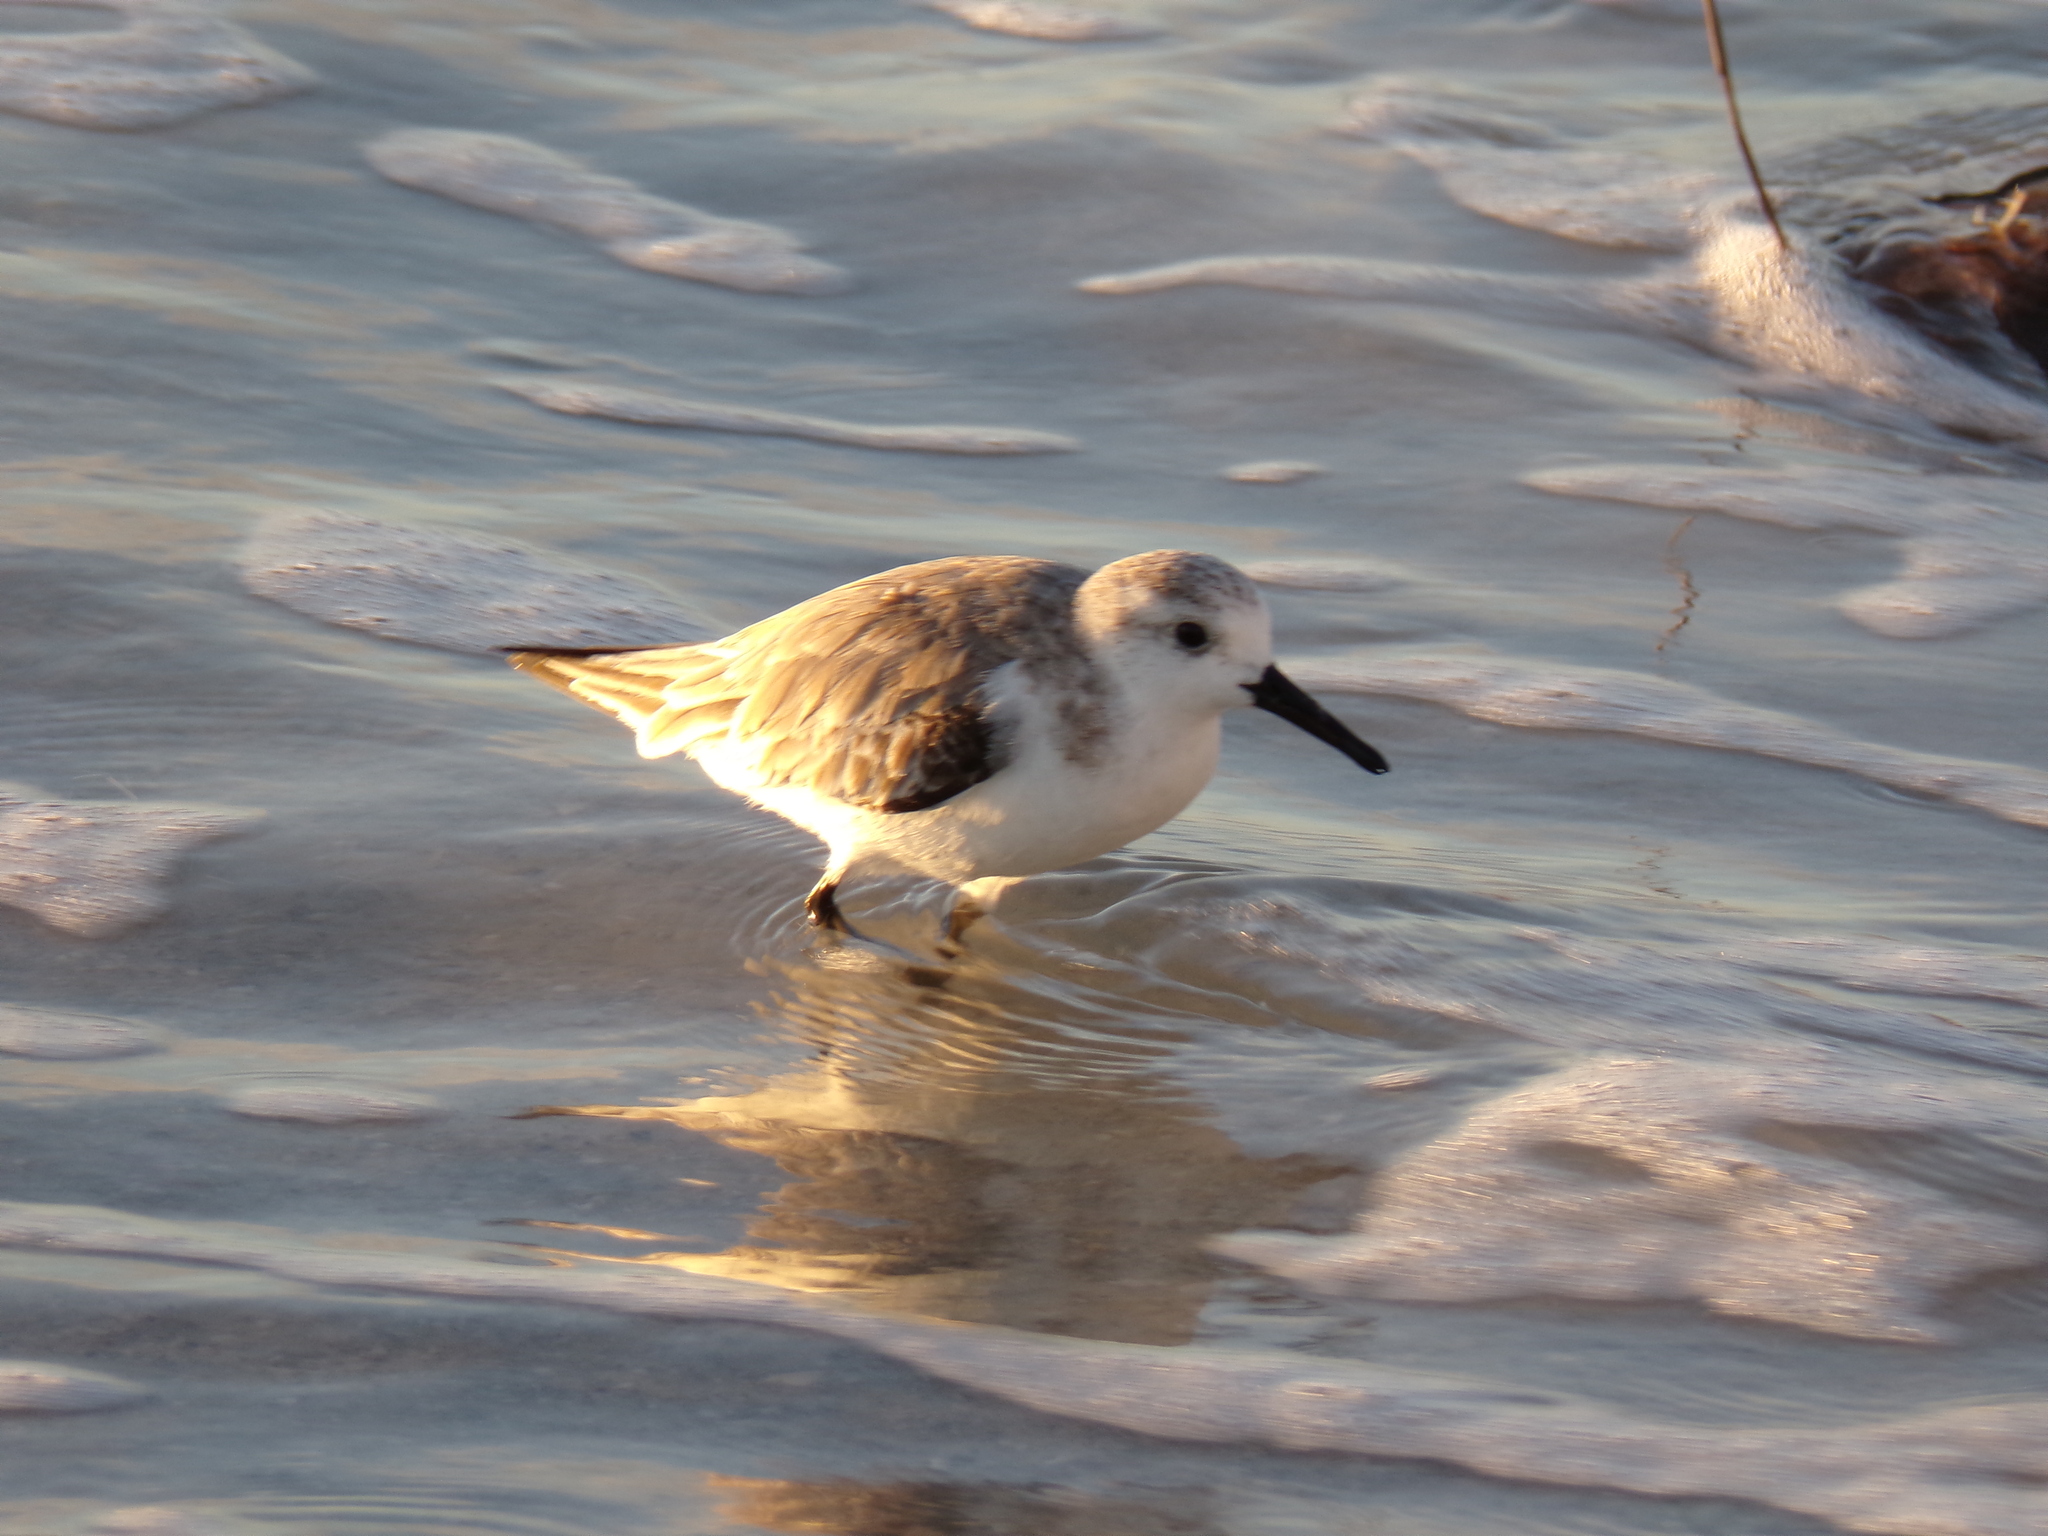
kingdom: Animalia
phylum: Chordata
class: Aves
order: Charadriiformes
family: Scolopacidae
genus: Calidris
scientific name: Calidris alba
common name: Sanderling
